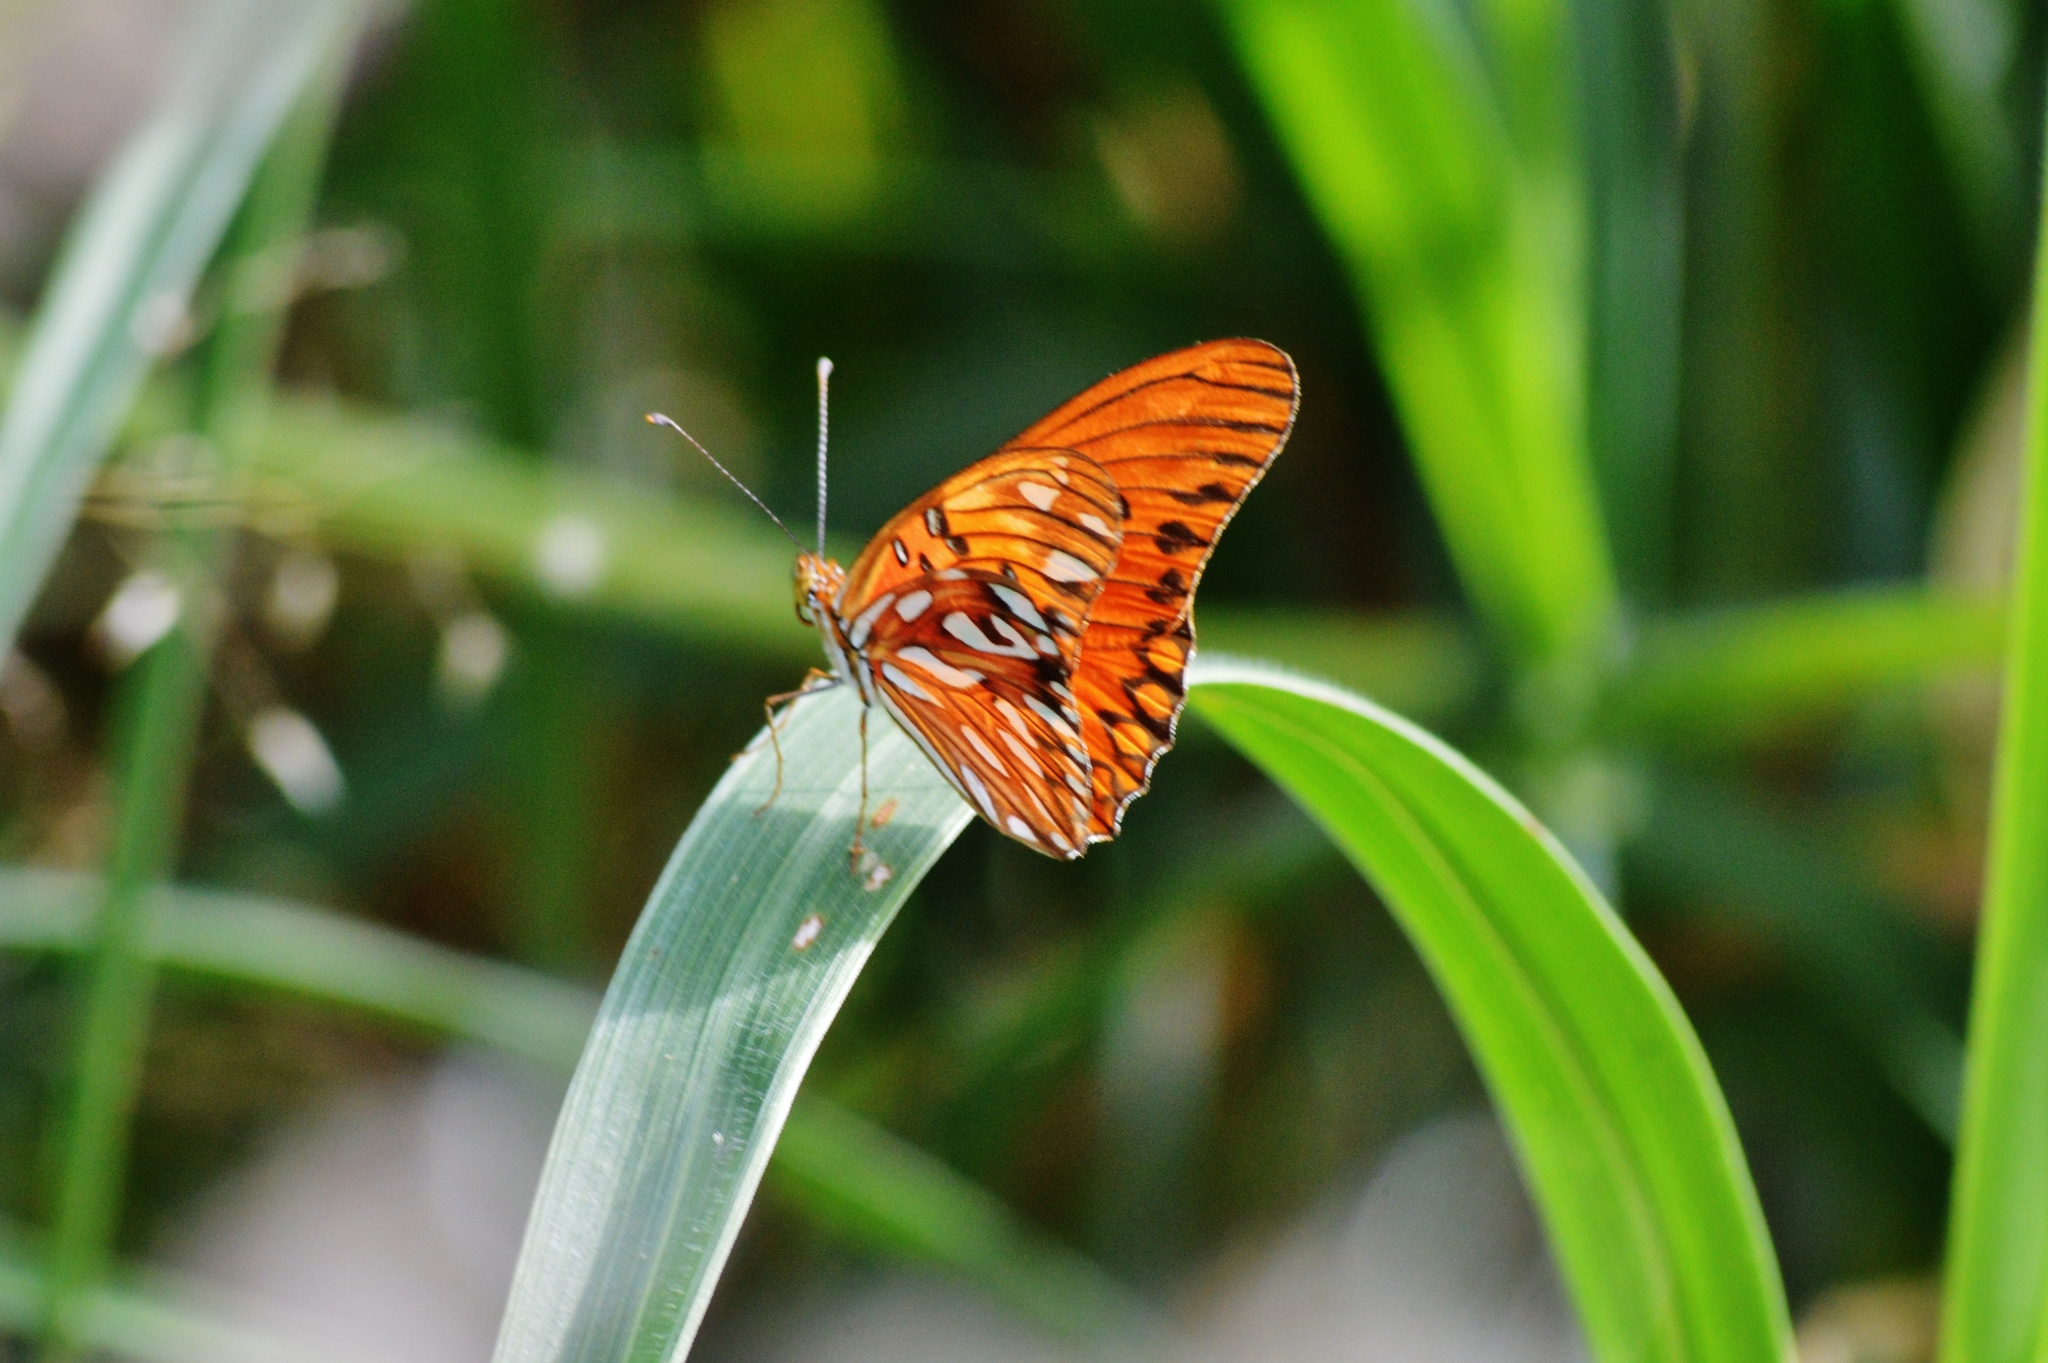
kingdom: Animalia
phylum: Arthropoda
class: Insecta
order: Lepidoptera
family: Nymphalidae
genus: Dione
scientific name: Dione vanillae
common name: Gulf fritillary
